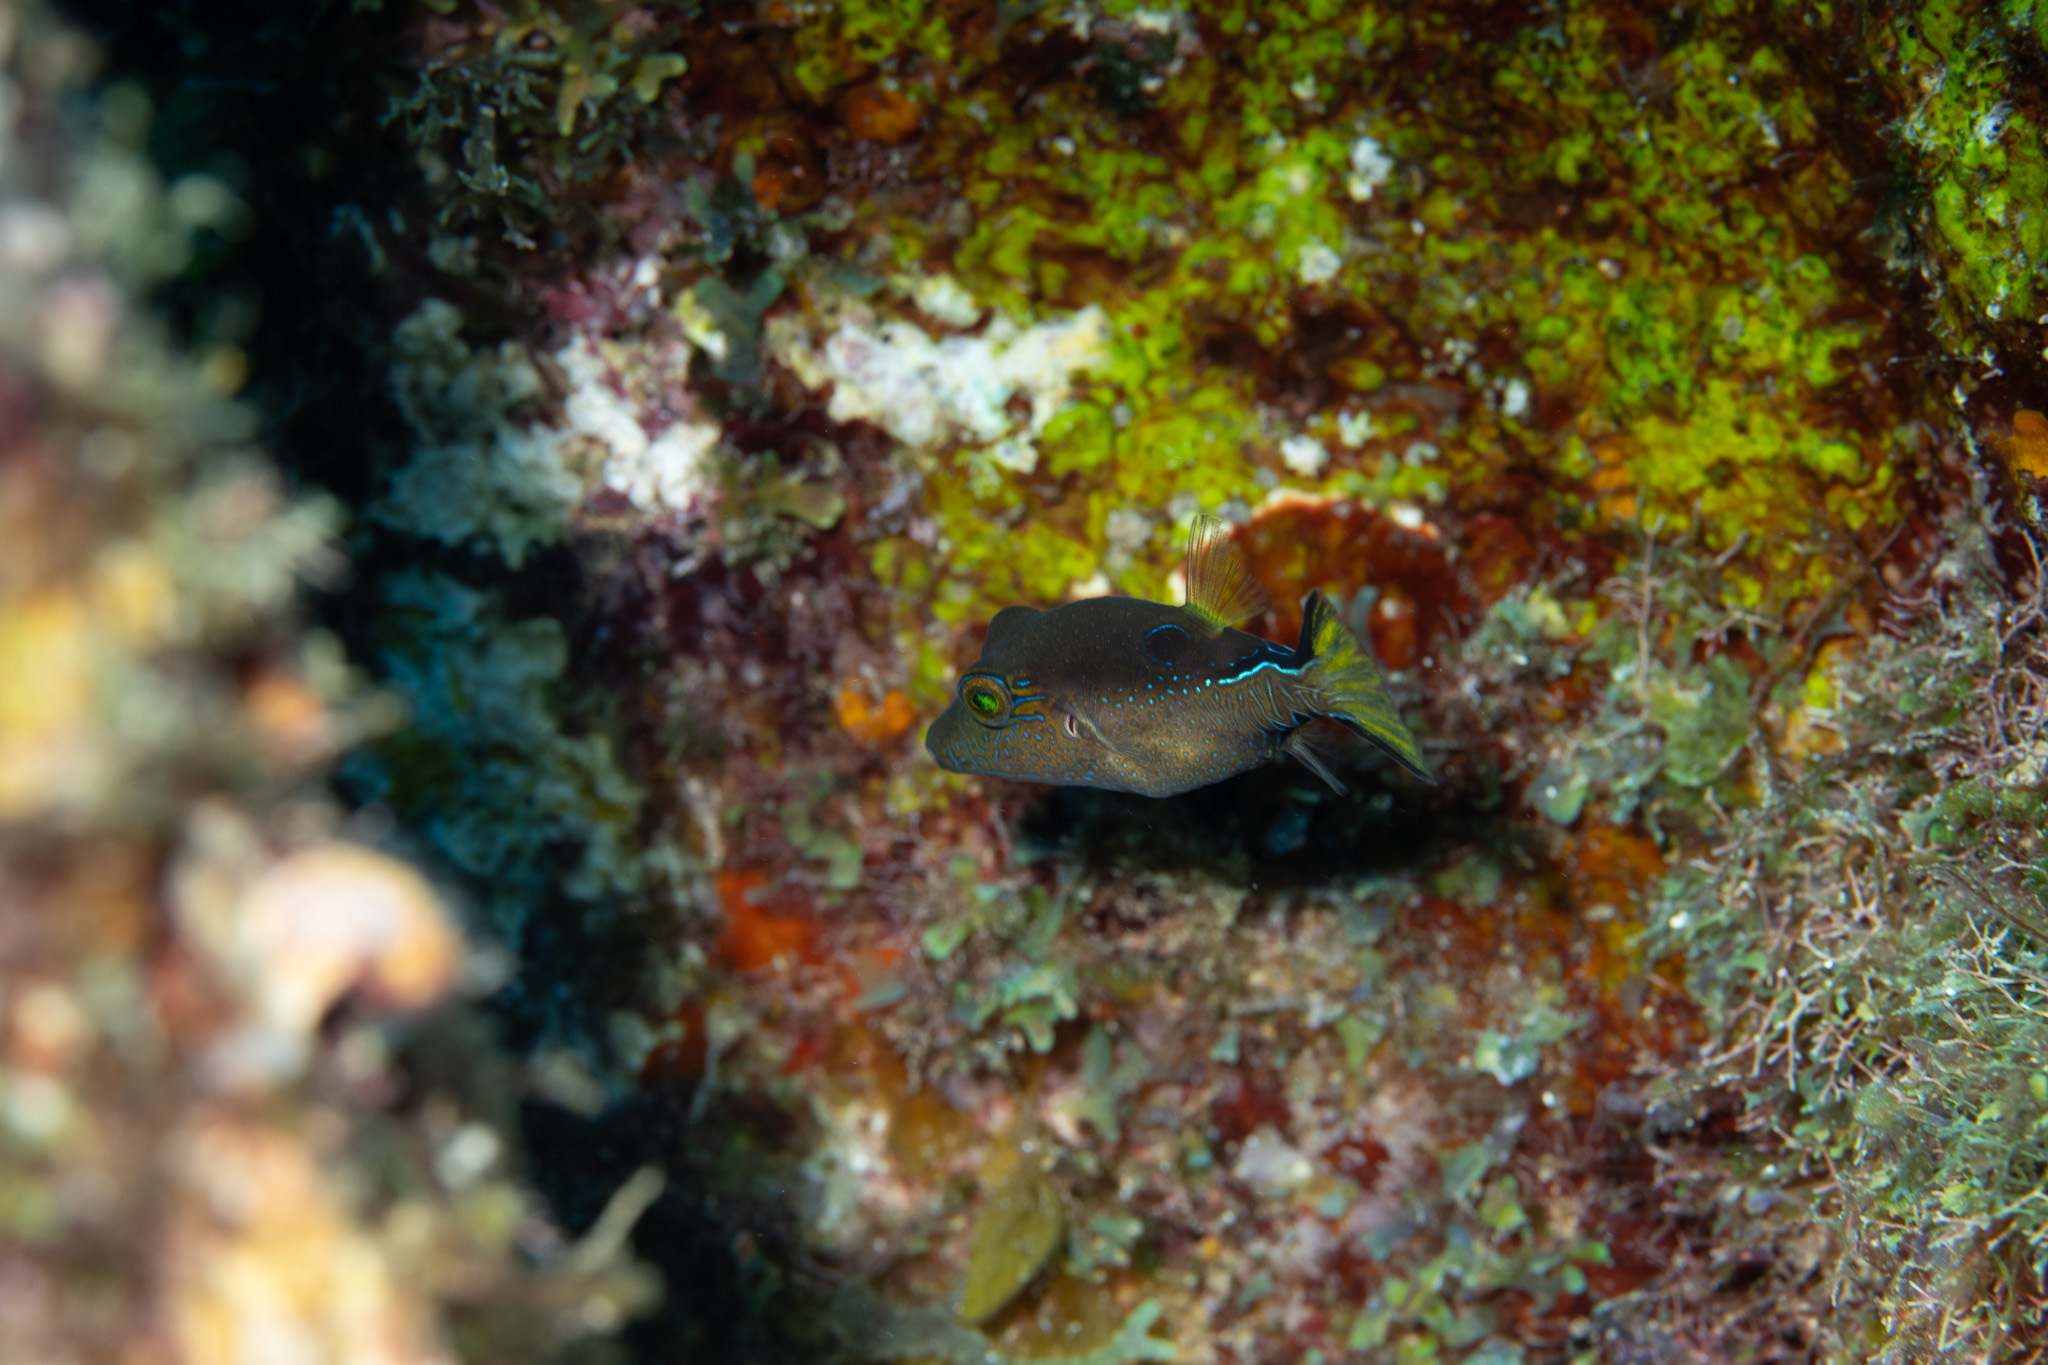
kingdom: Animalia
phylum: Chordata
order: Tetraodontiformes
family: Tetraodontidae
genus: Canthigaster
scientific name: Canthigaster rostrata
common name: Caribbean sharpnose-puffer
